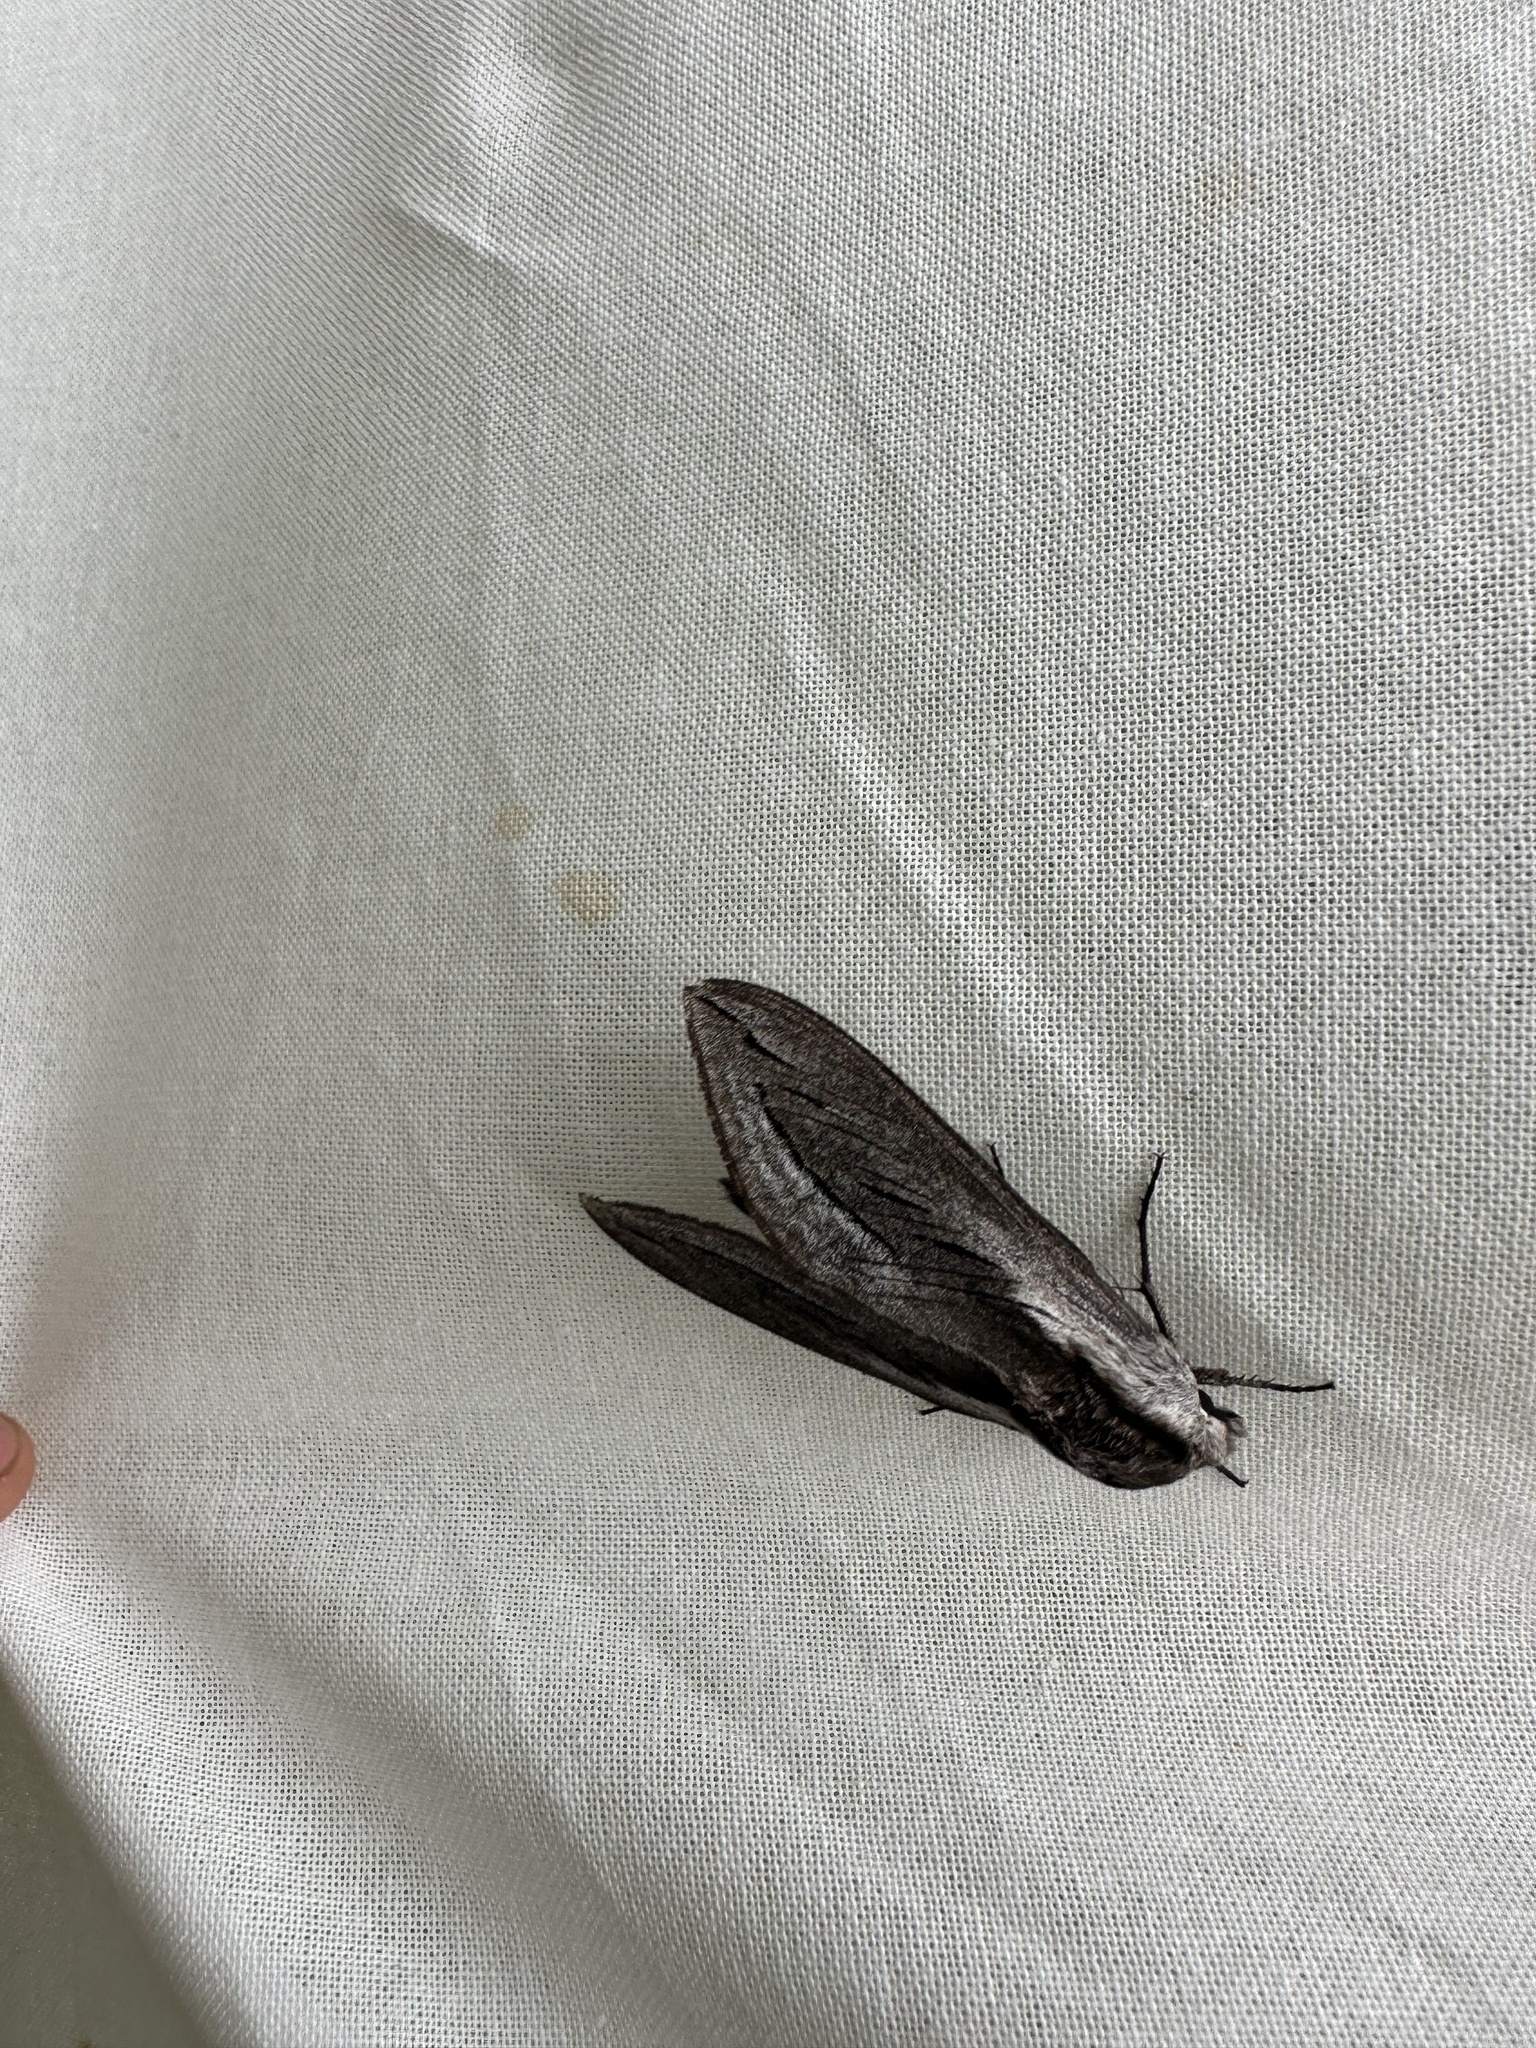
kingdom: Animalia
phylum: Arthropoda
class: Insecta
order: Lepidoptera
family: Sphingidae
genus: Sphinx
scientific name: Sphinx vashti
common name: Snowberry sphinx
